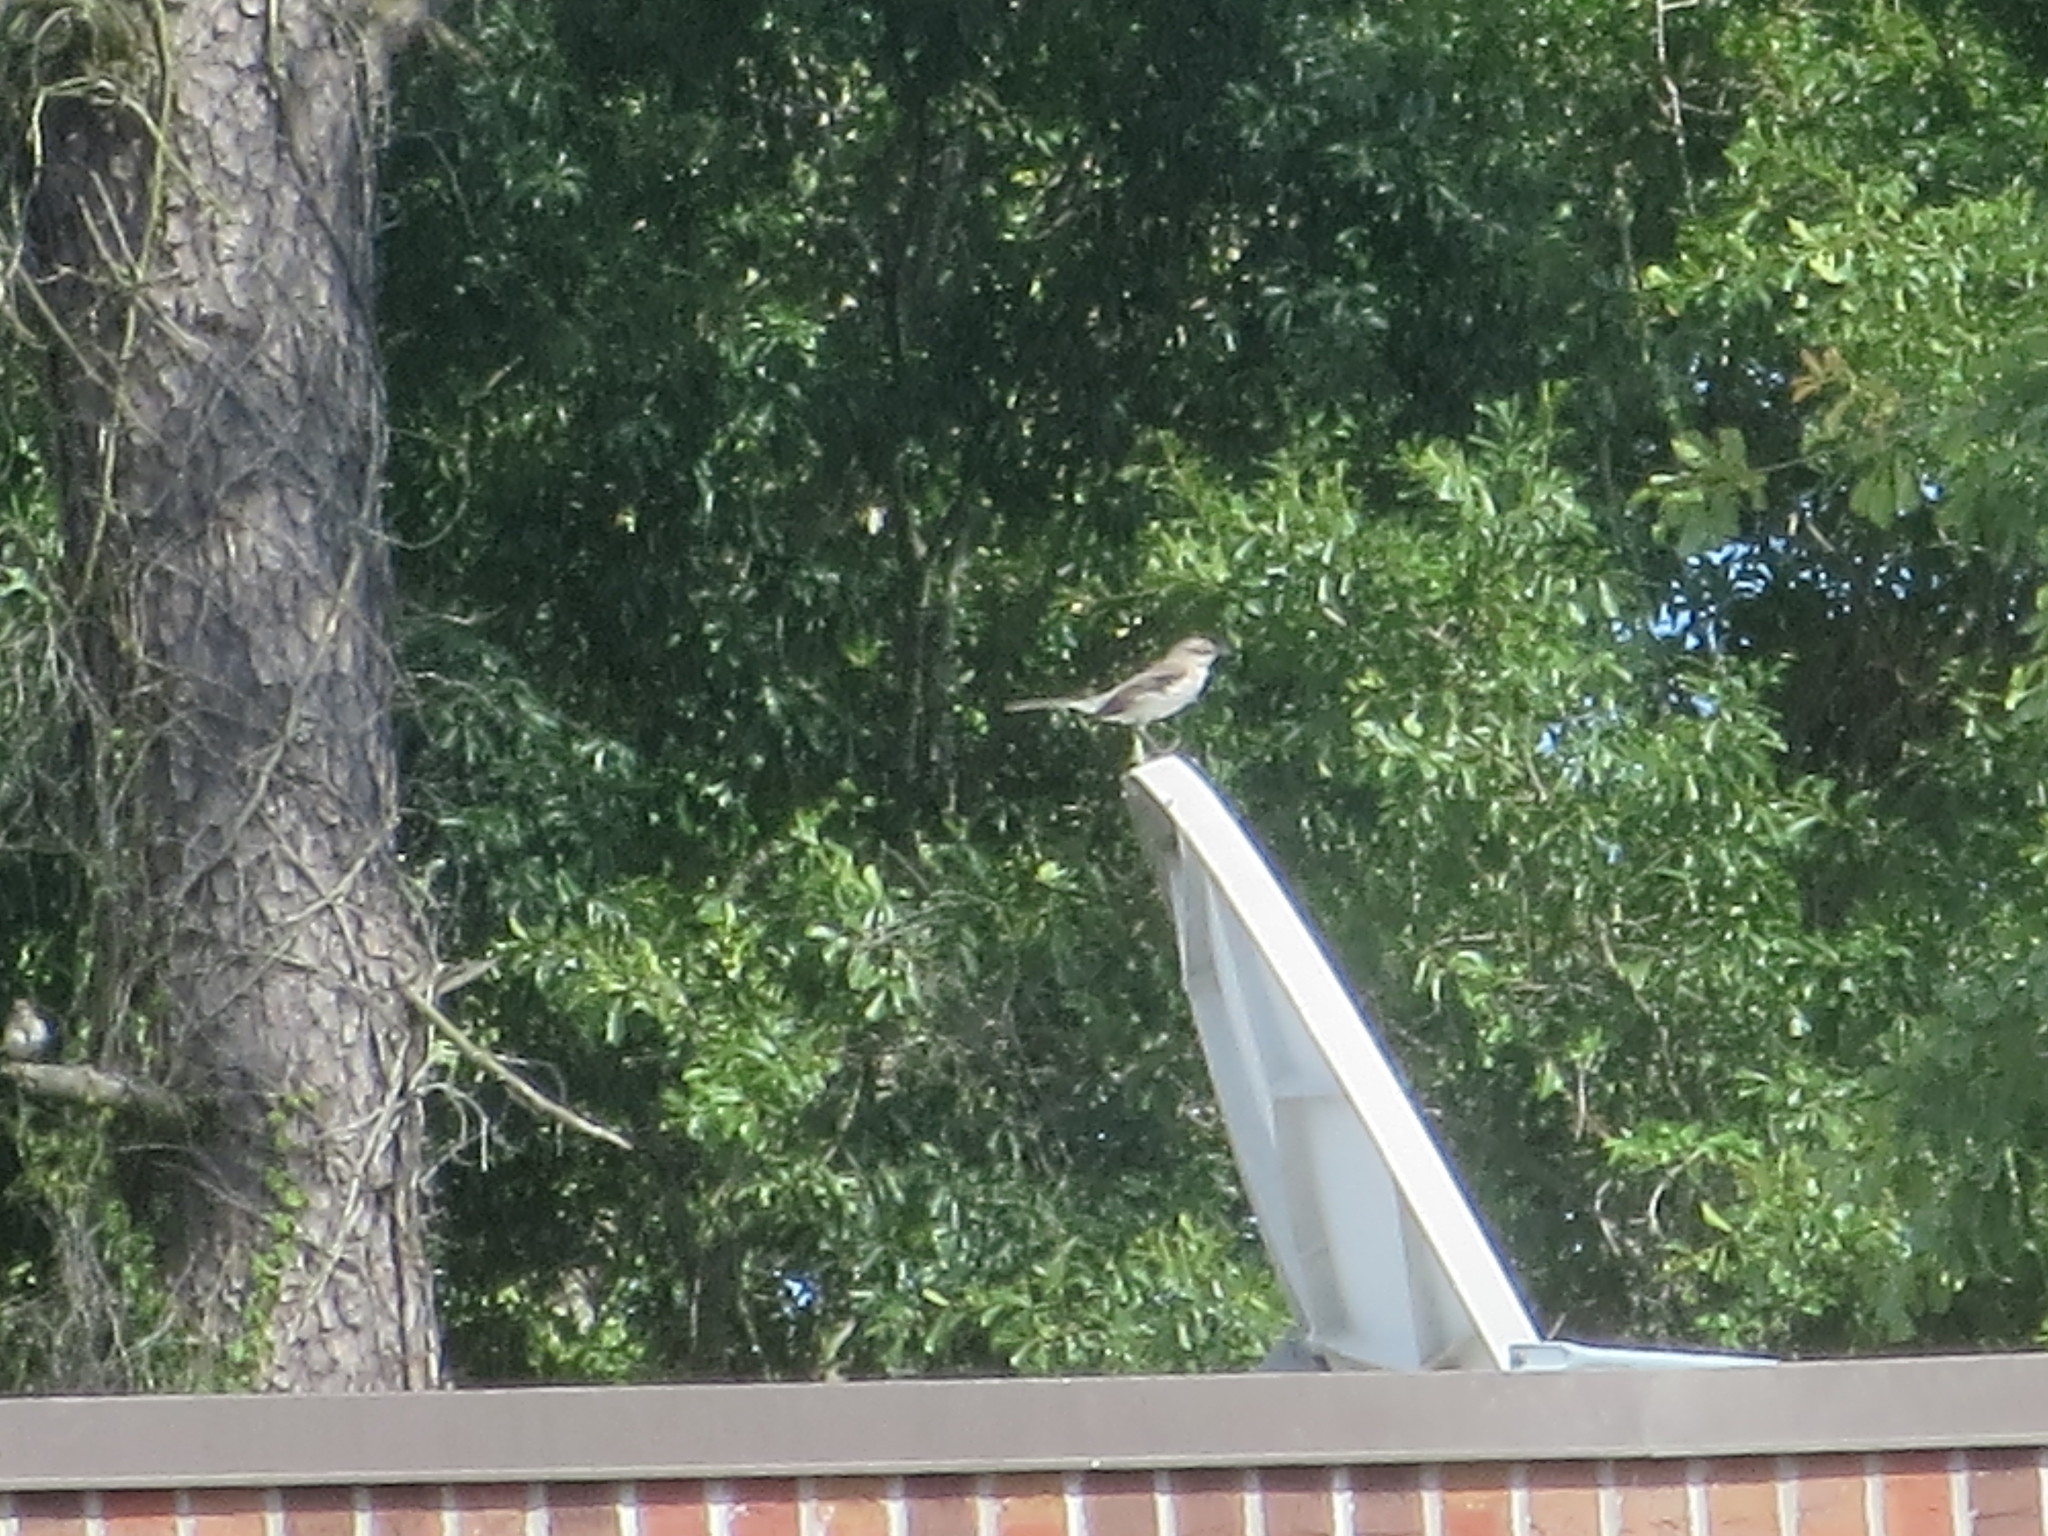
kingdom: Animalia
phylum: Chordata
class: Aves
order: Passeriformes
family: Mimidae
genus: Mimus
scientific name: Mimus polyglottos
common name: Northern mockingbird
